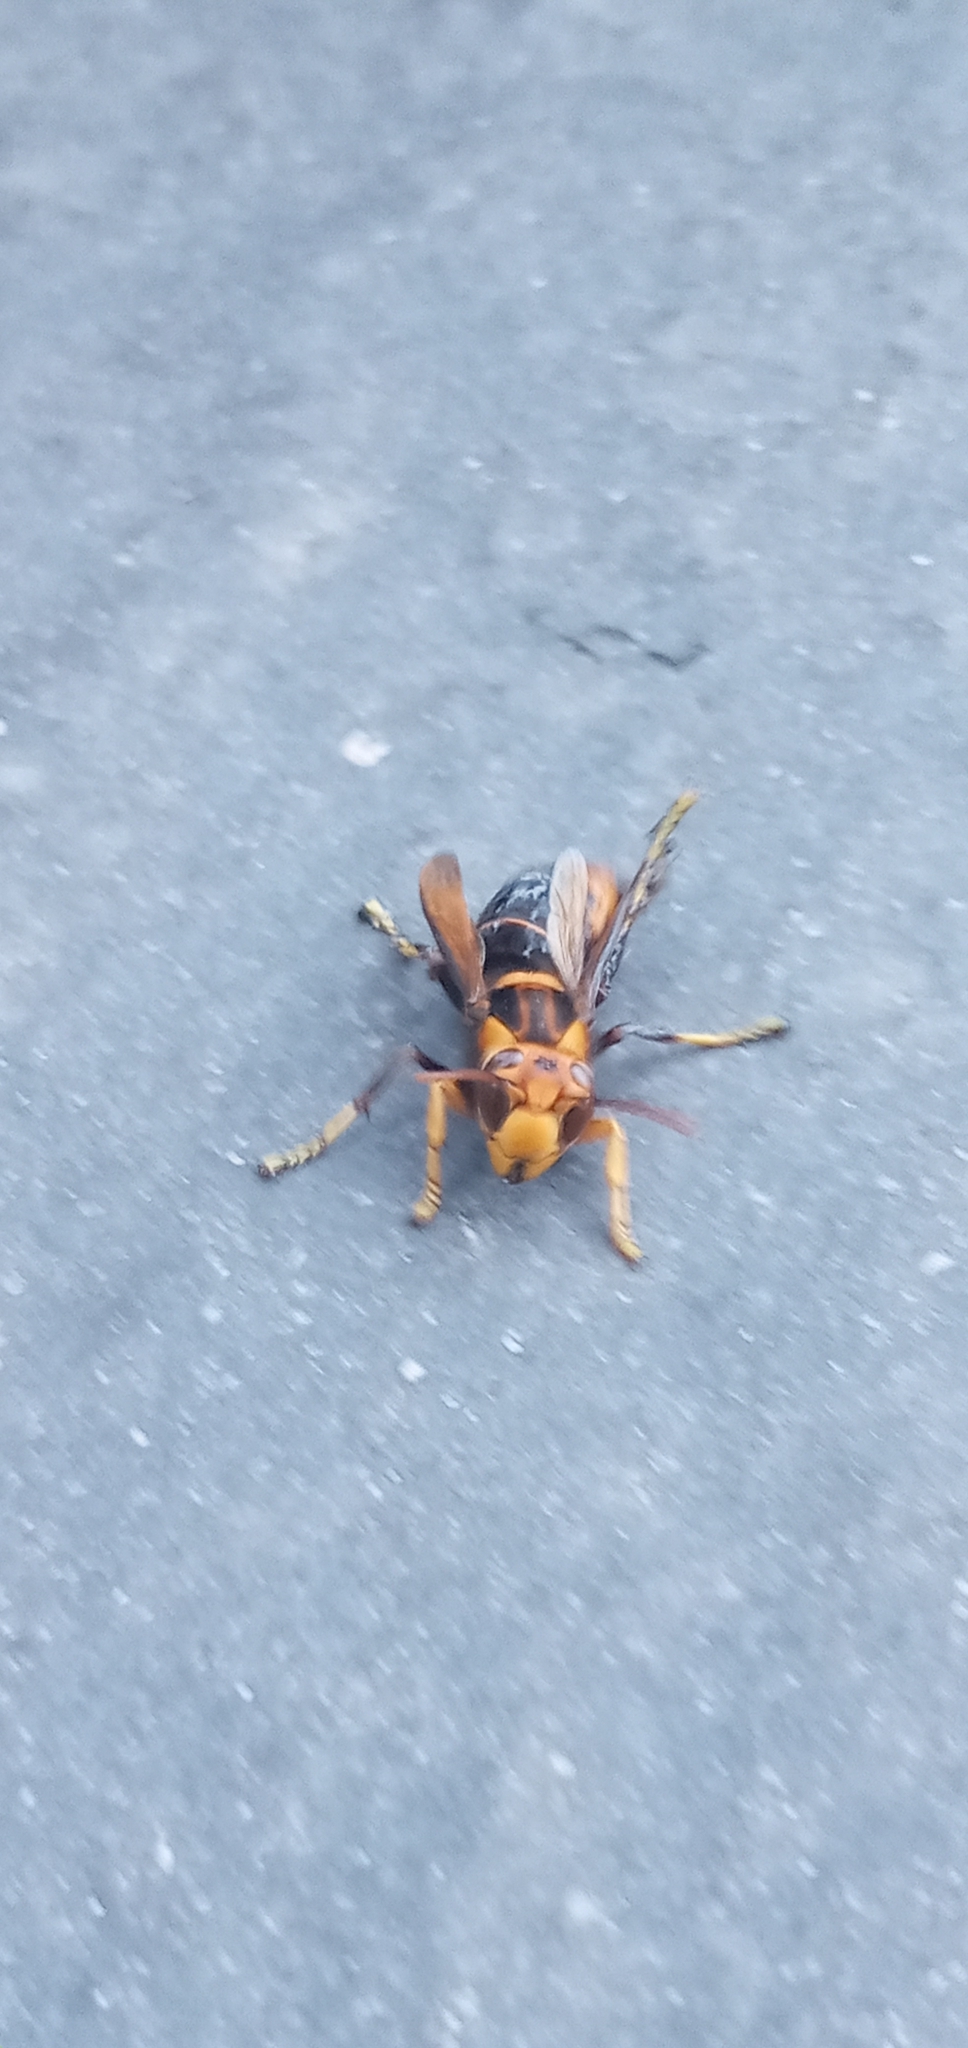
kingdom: Animalia
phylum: Arthropoda
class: Insecta
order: Hymenoptera
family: Vespidae
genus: Vespa
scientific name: Vespa velutina
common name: Asian hornet
